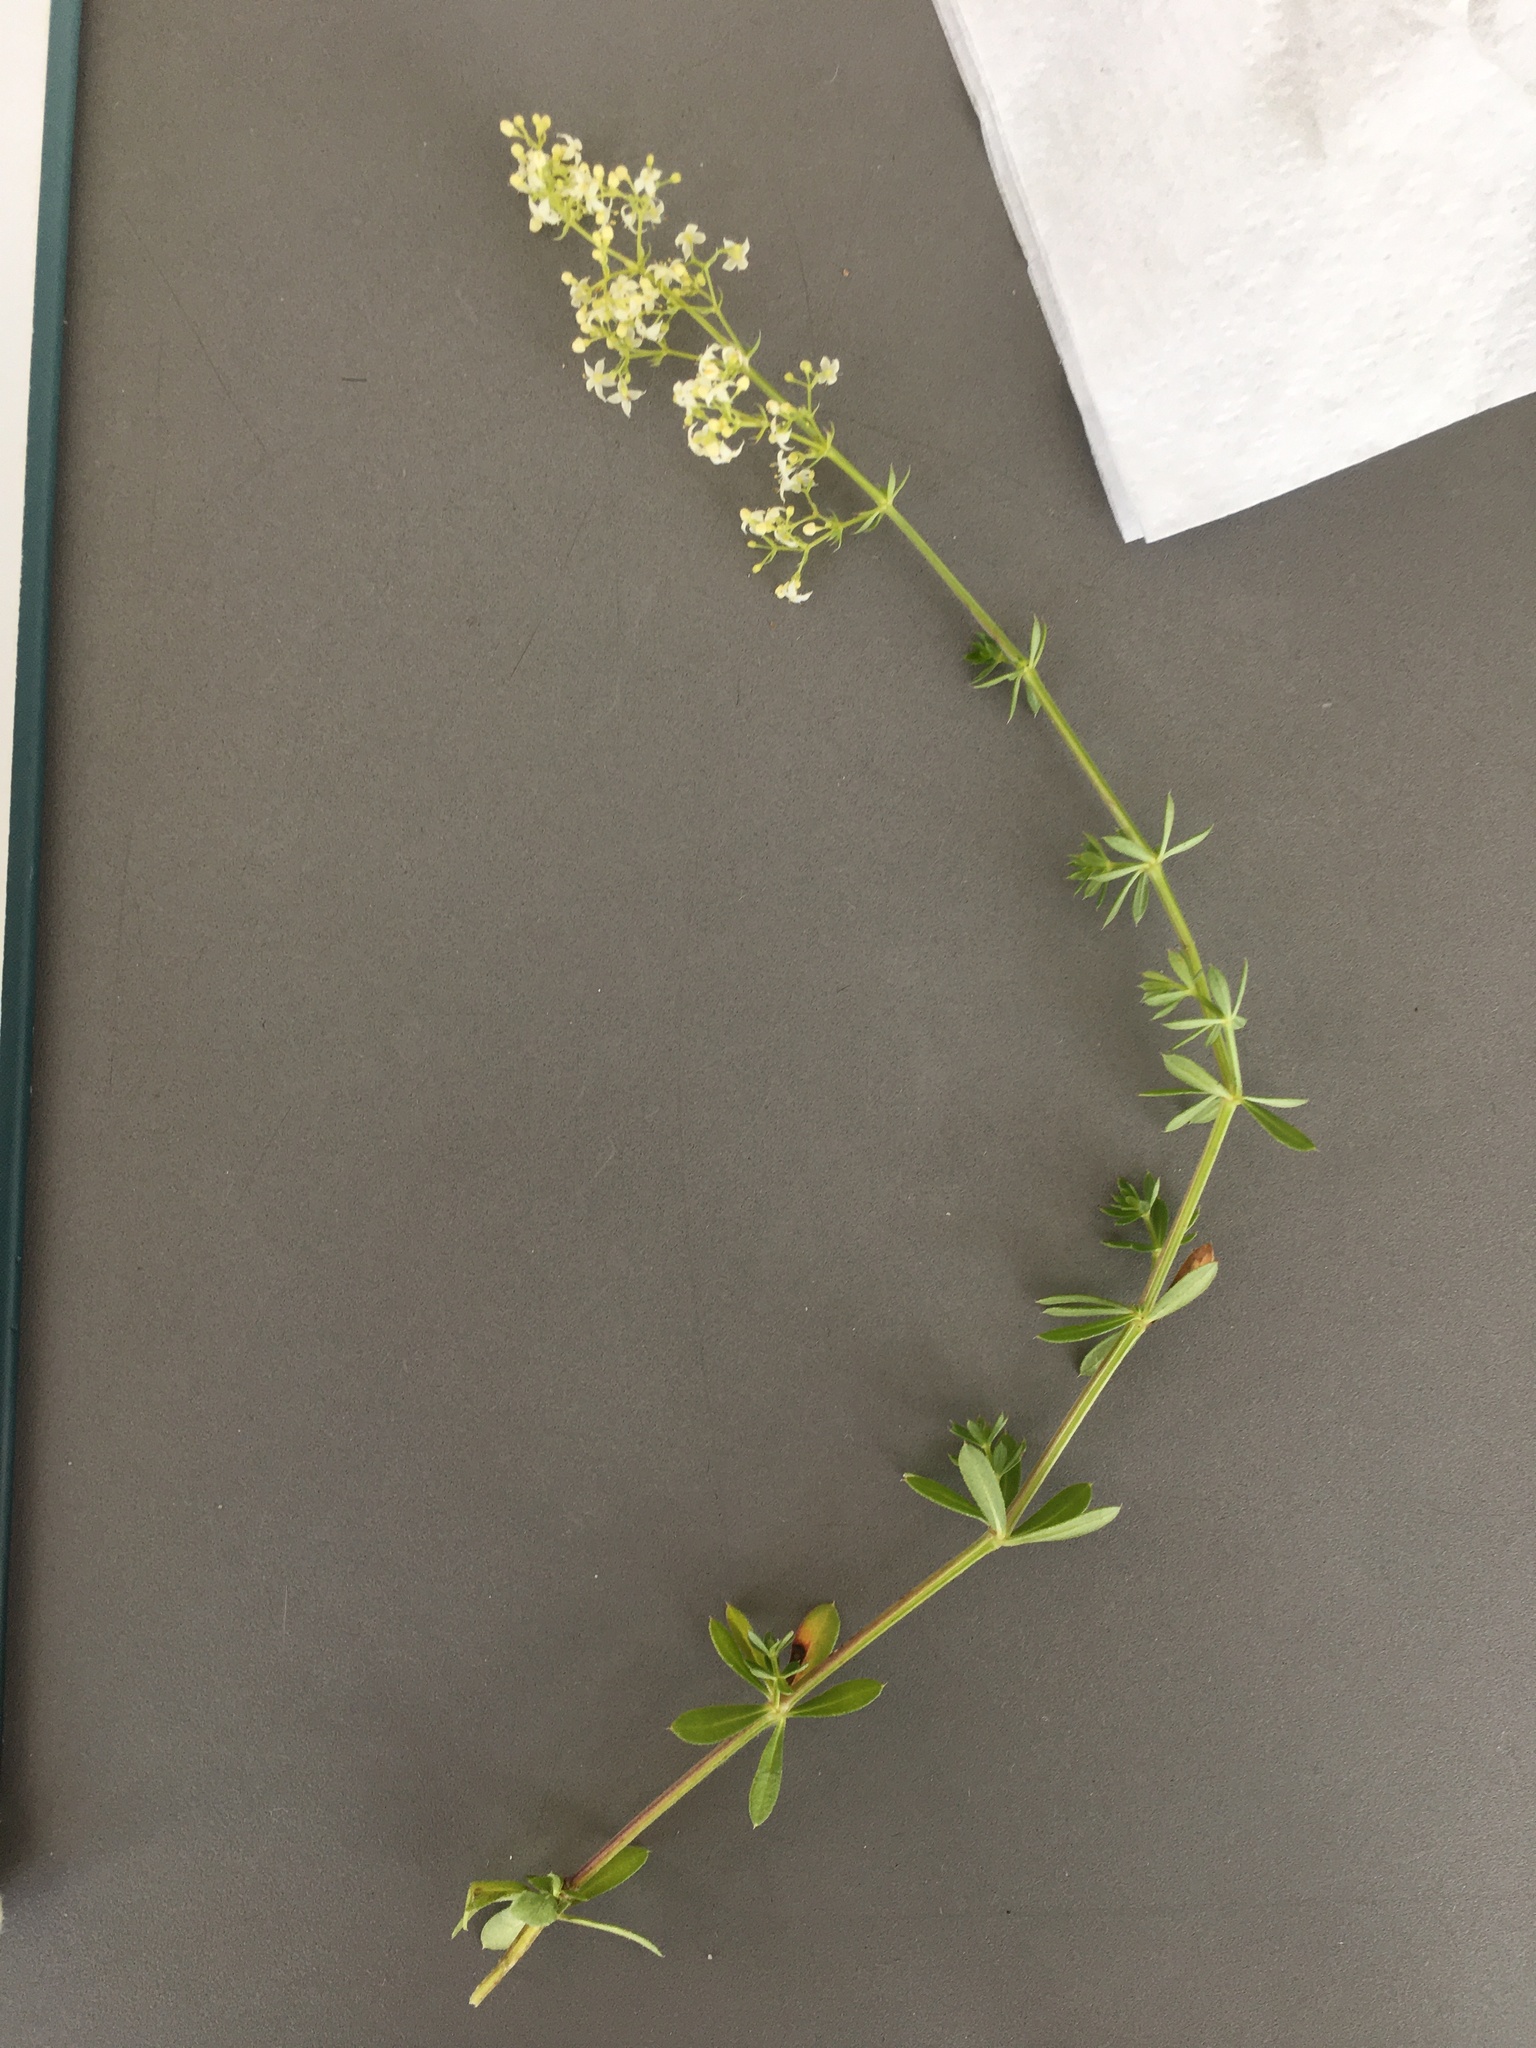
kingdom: Plantae
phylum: Tracheophyta
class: Magnoliopsida
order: Gentianales
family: Rubiaceae
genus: Galium
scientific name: Galium mollugo
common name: Hedge bedstraw
